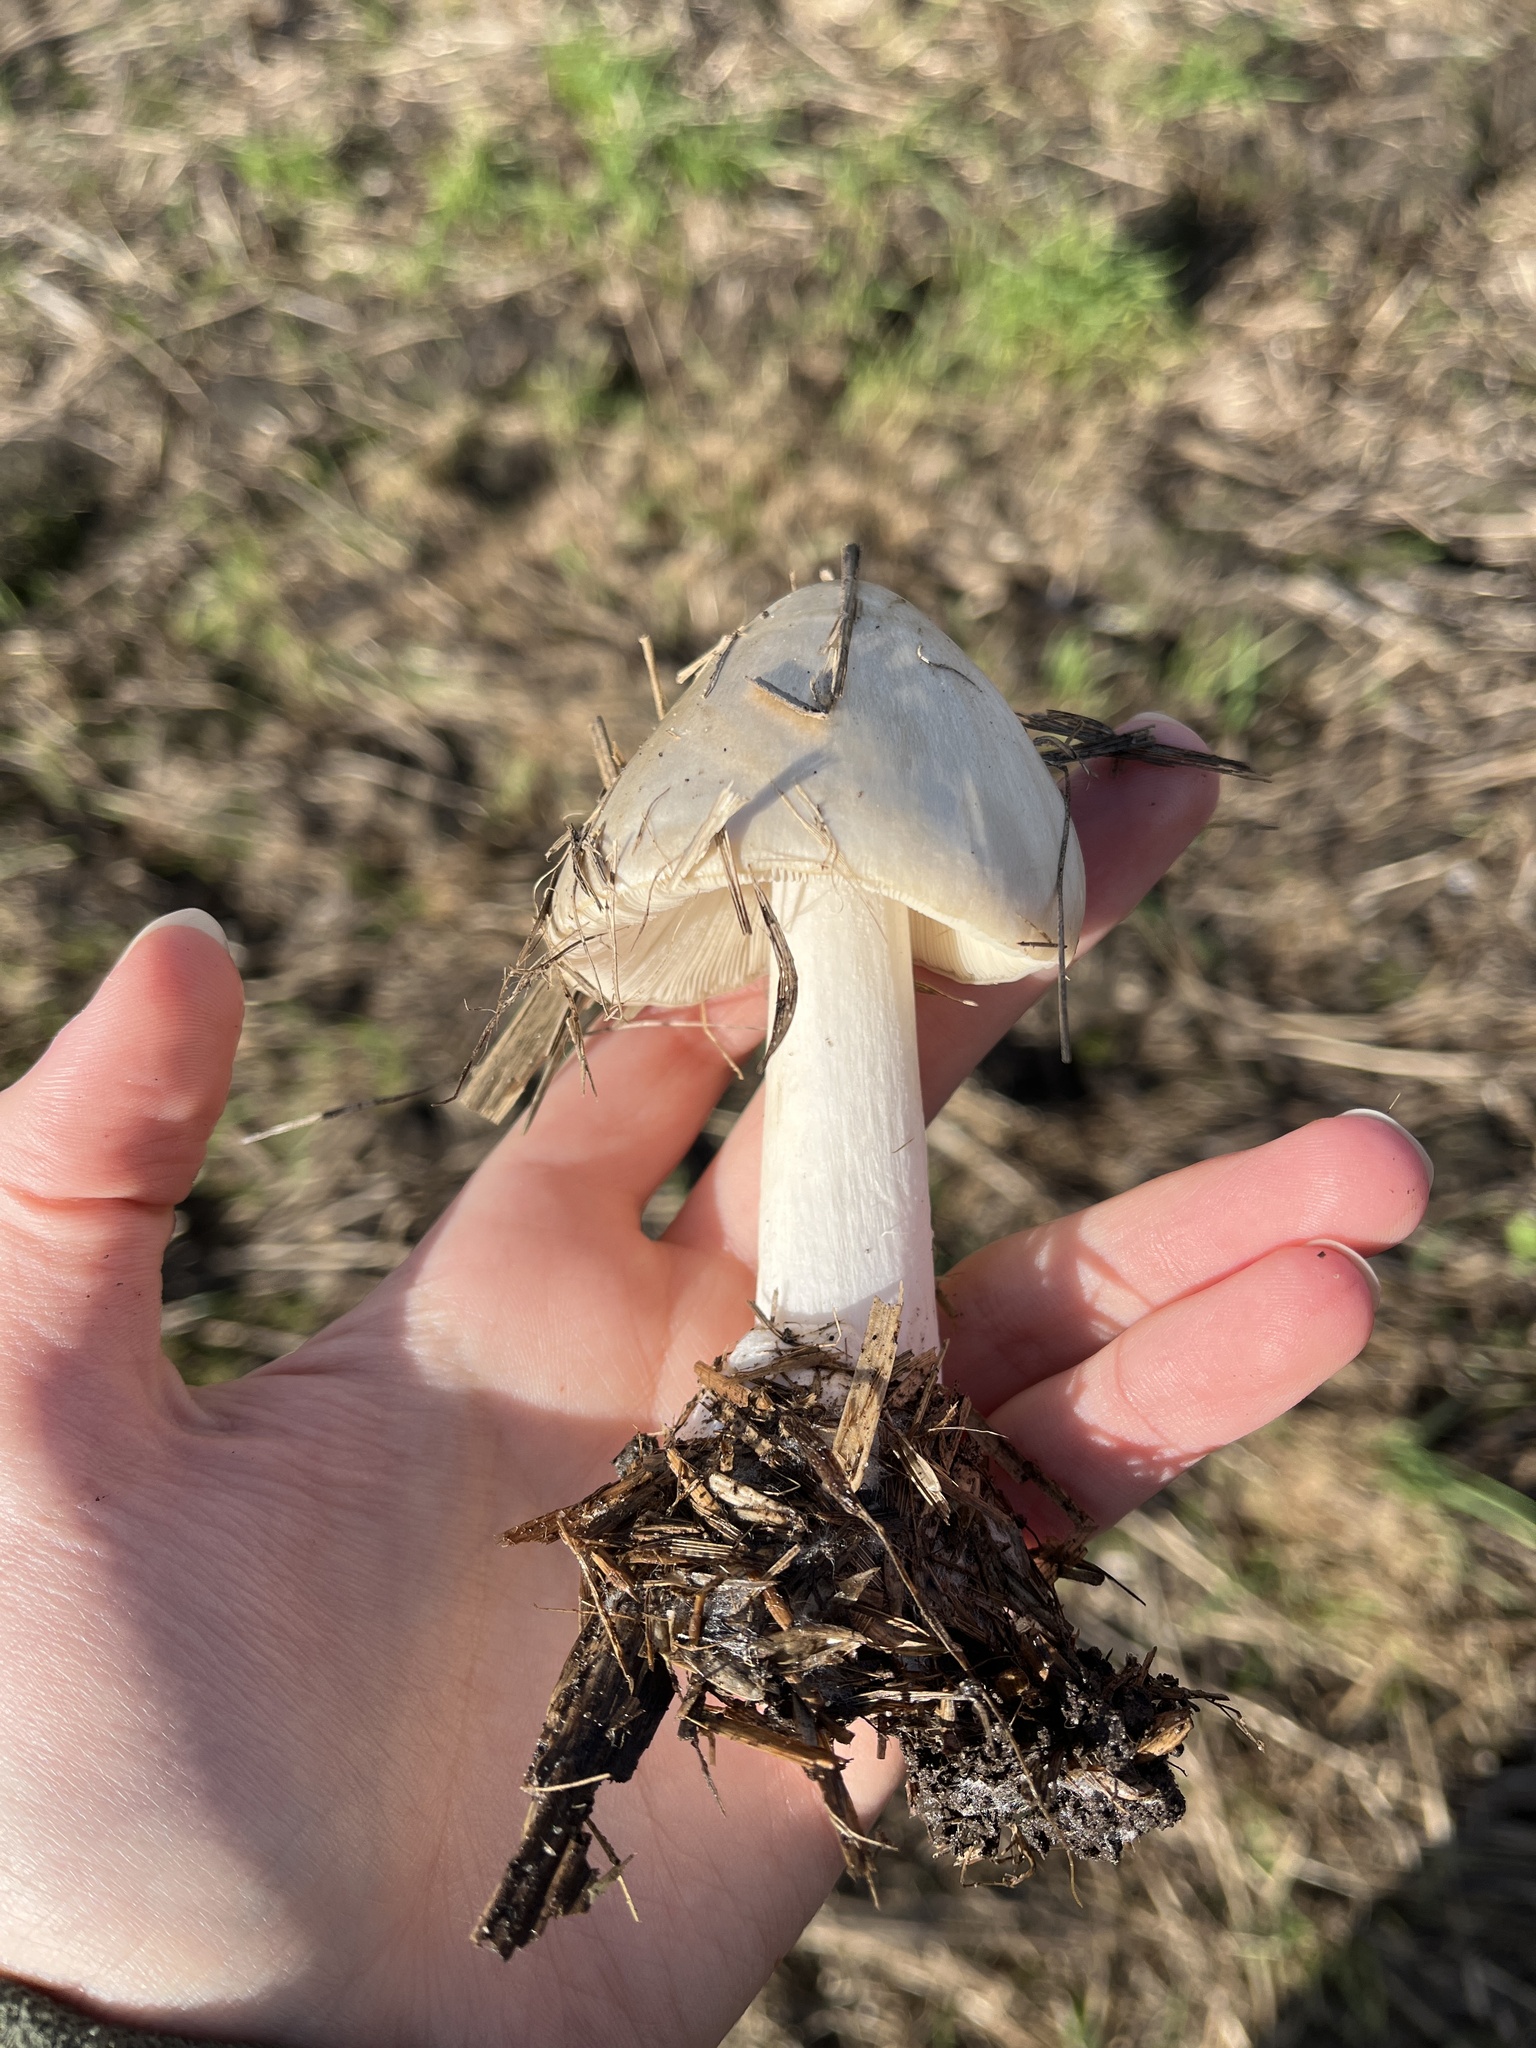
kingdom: Fungi
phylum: Basidiomycota
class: Agaricomycetes
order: Agaricales
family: Pluteaceae
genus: Volvopluteus
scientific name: Volvopluteus gloiocephalus
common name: Stubble rosegill
